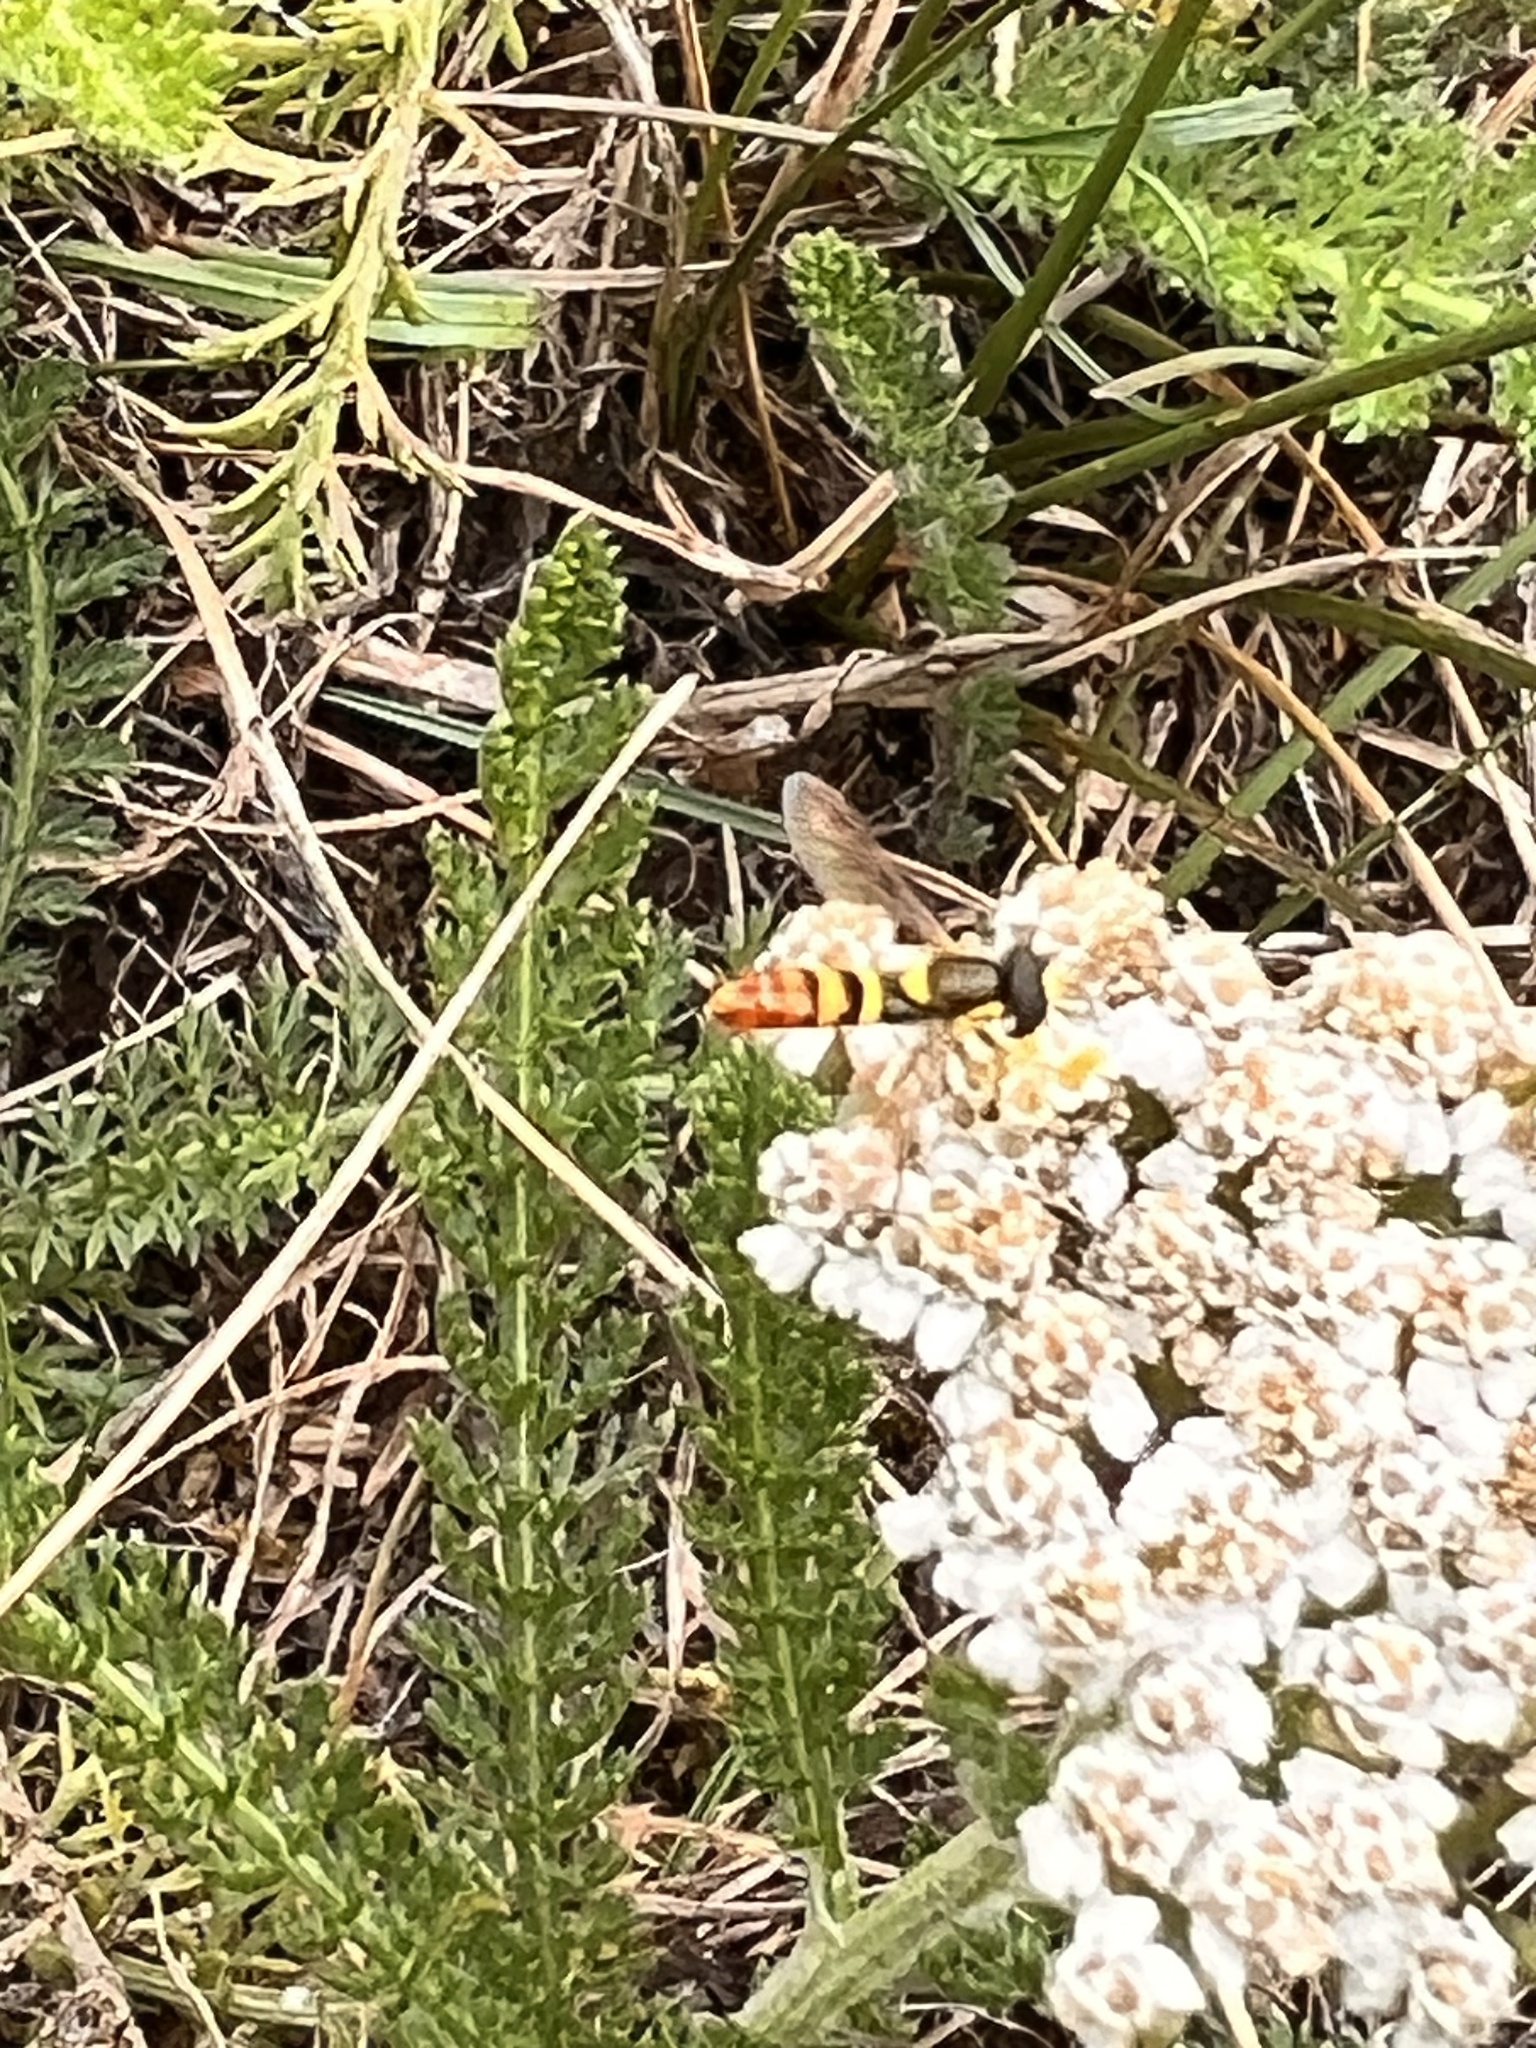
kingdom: Animalia
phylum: Arthropoda
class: Insecta
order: Diptera
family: Syrphidae
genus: Sphaerophoria
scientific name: Sphaerophoria sulphuripes
